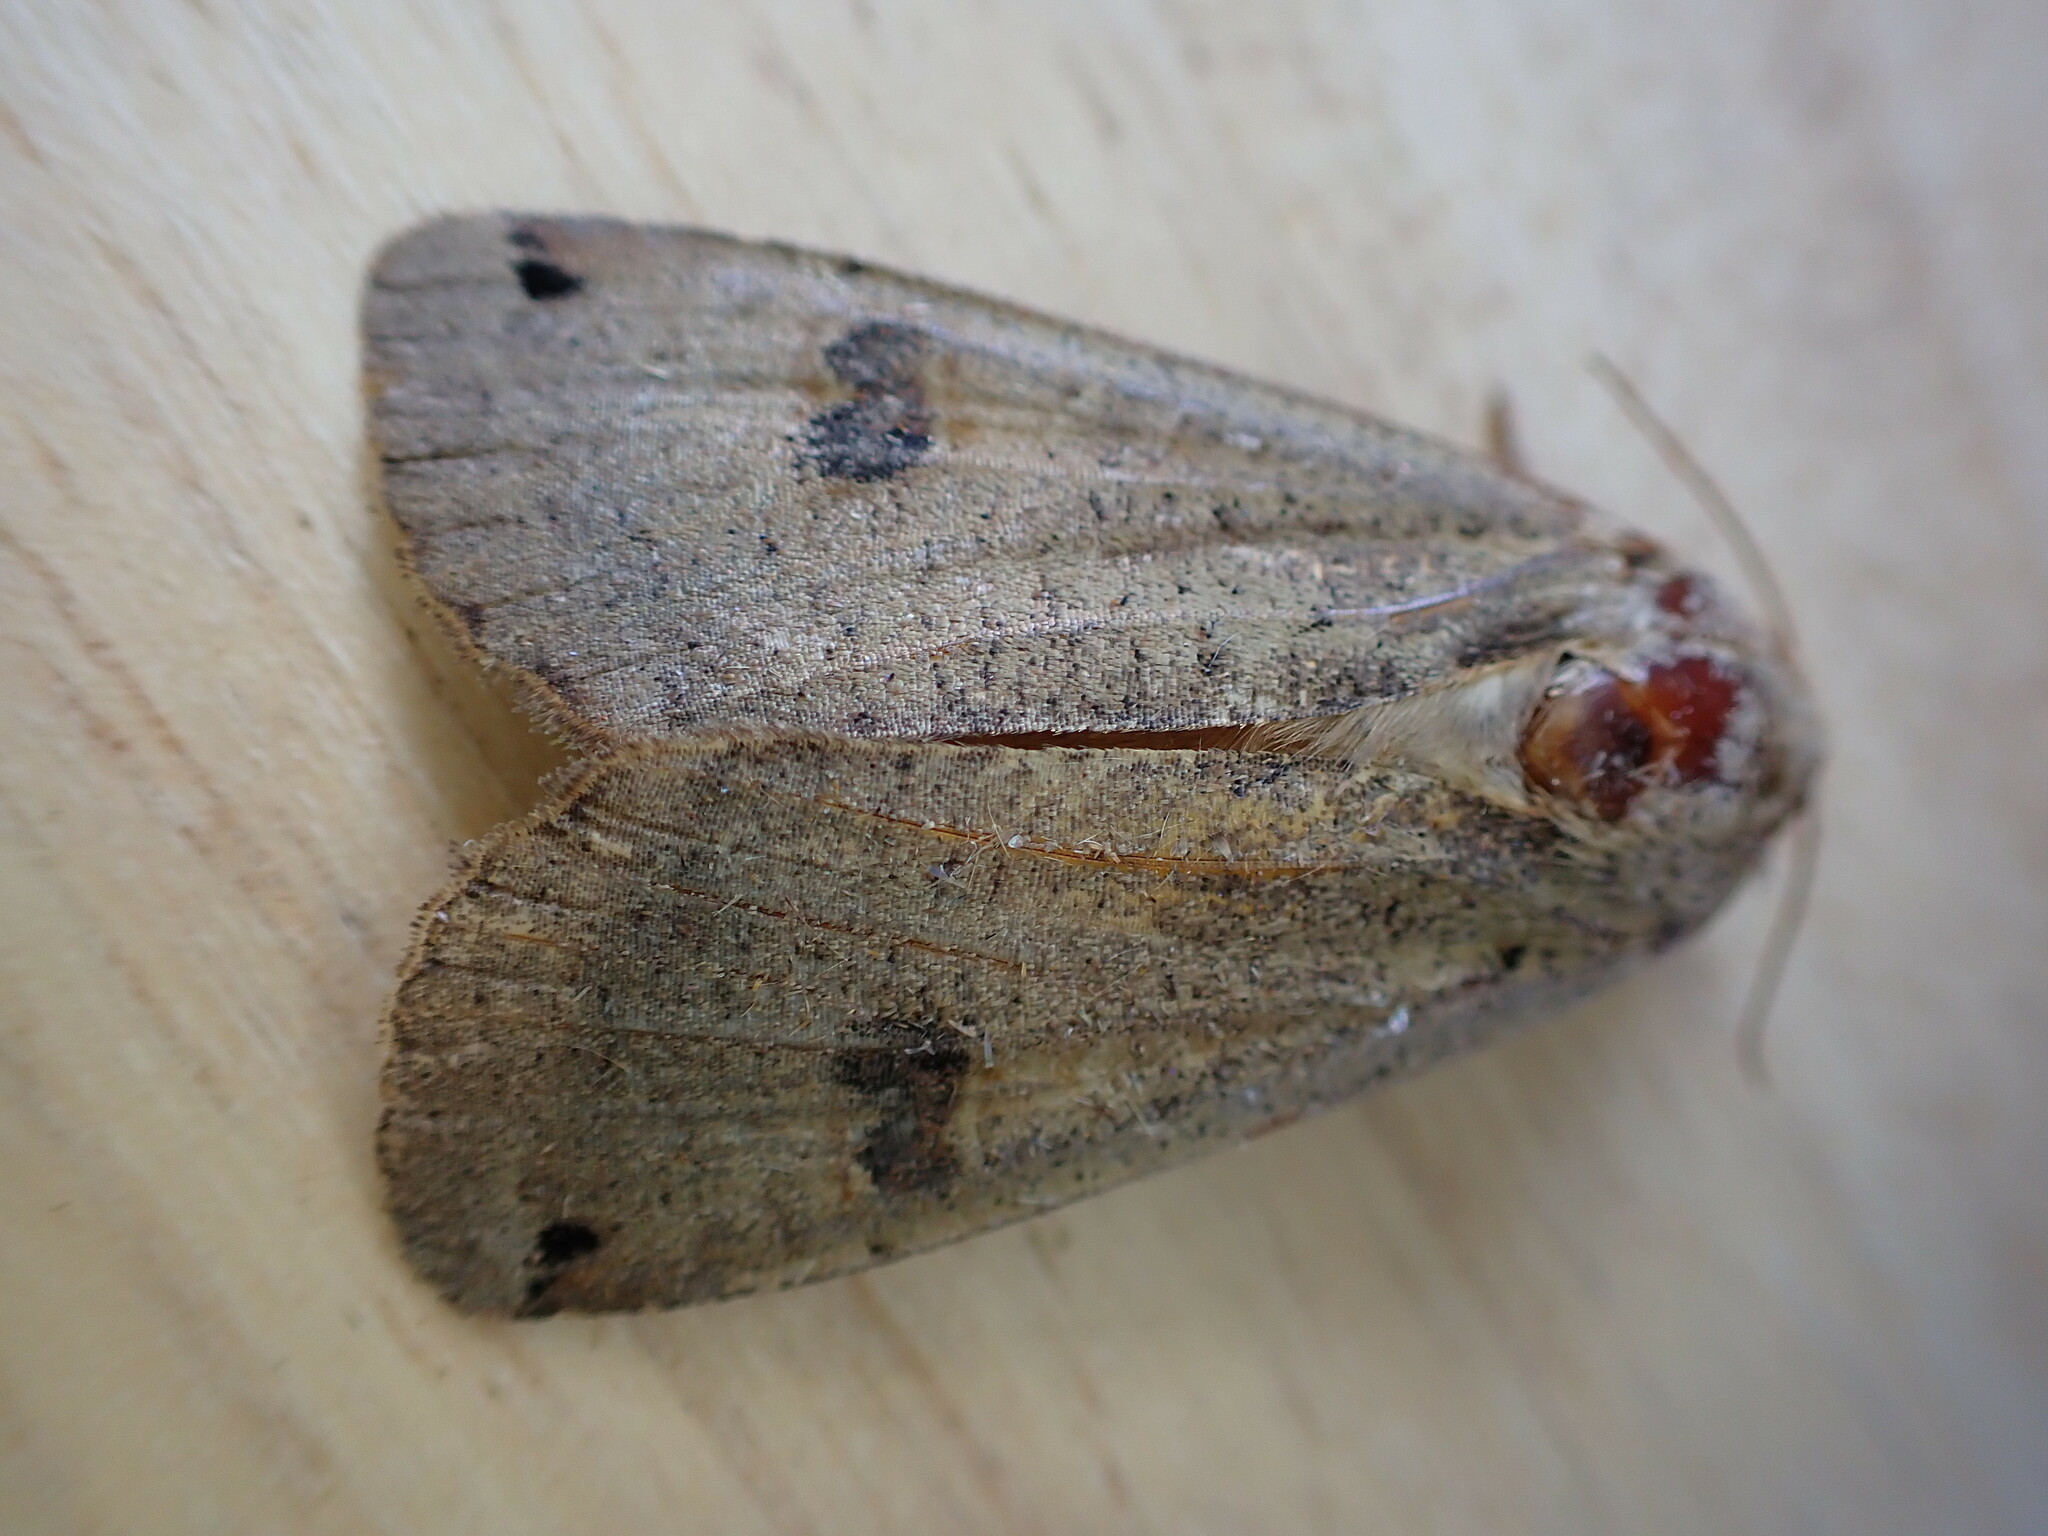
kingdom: Animalia
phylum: Arthropoda
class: Insecta
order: Lepidoptera
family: Noctuidae
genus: Noctua
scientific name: Noctua pronuba
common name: Large yellow underwing
